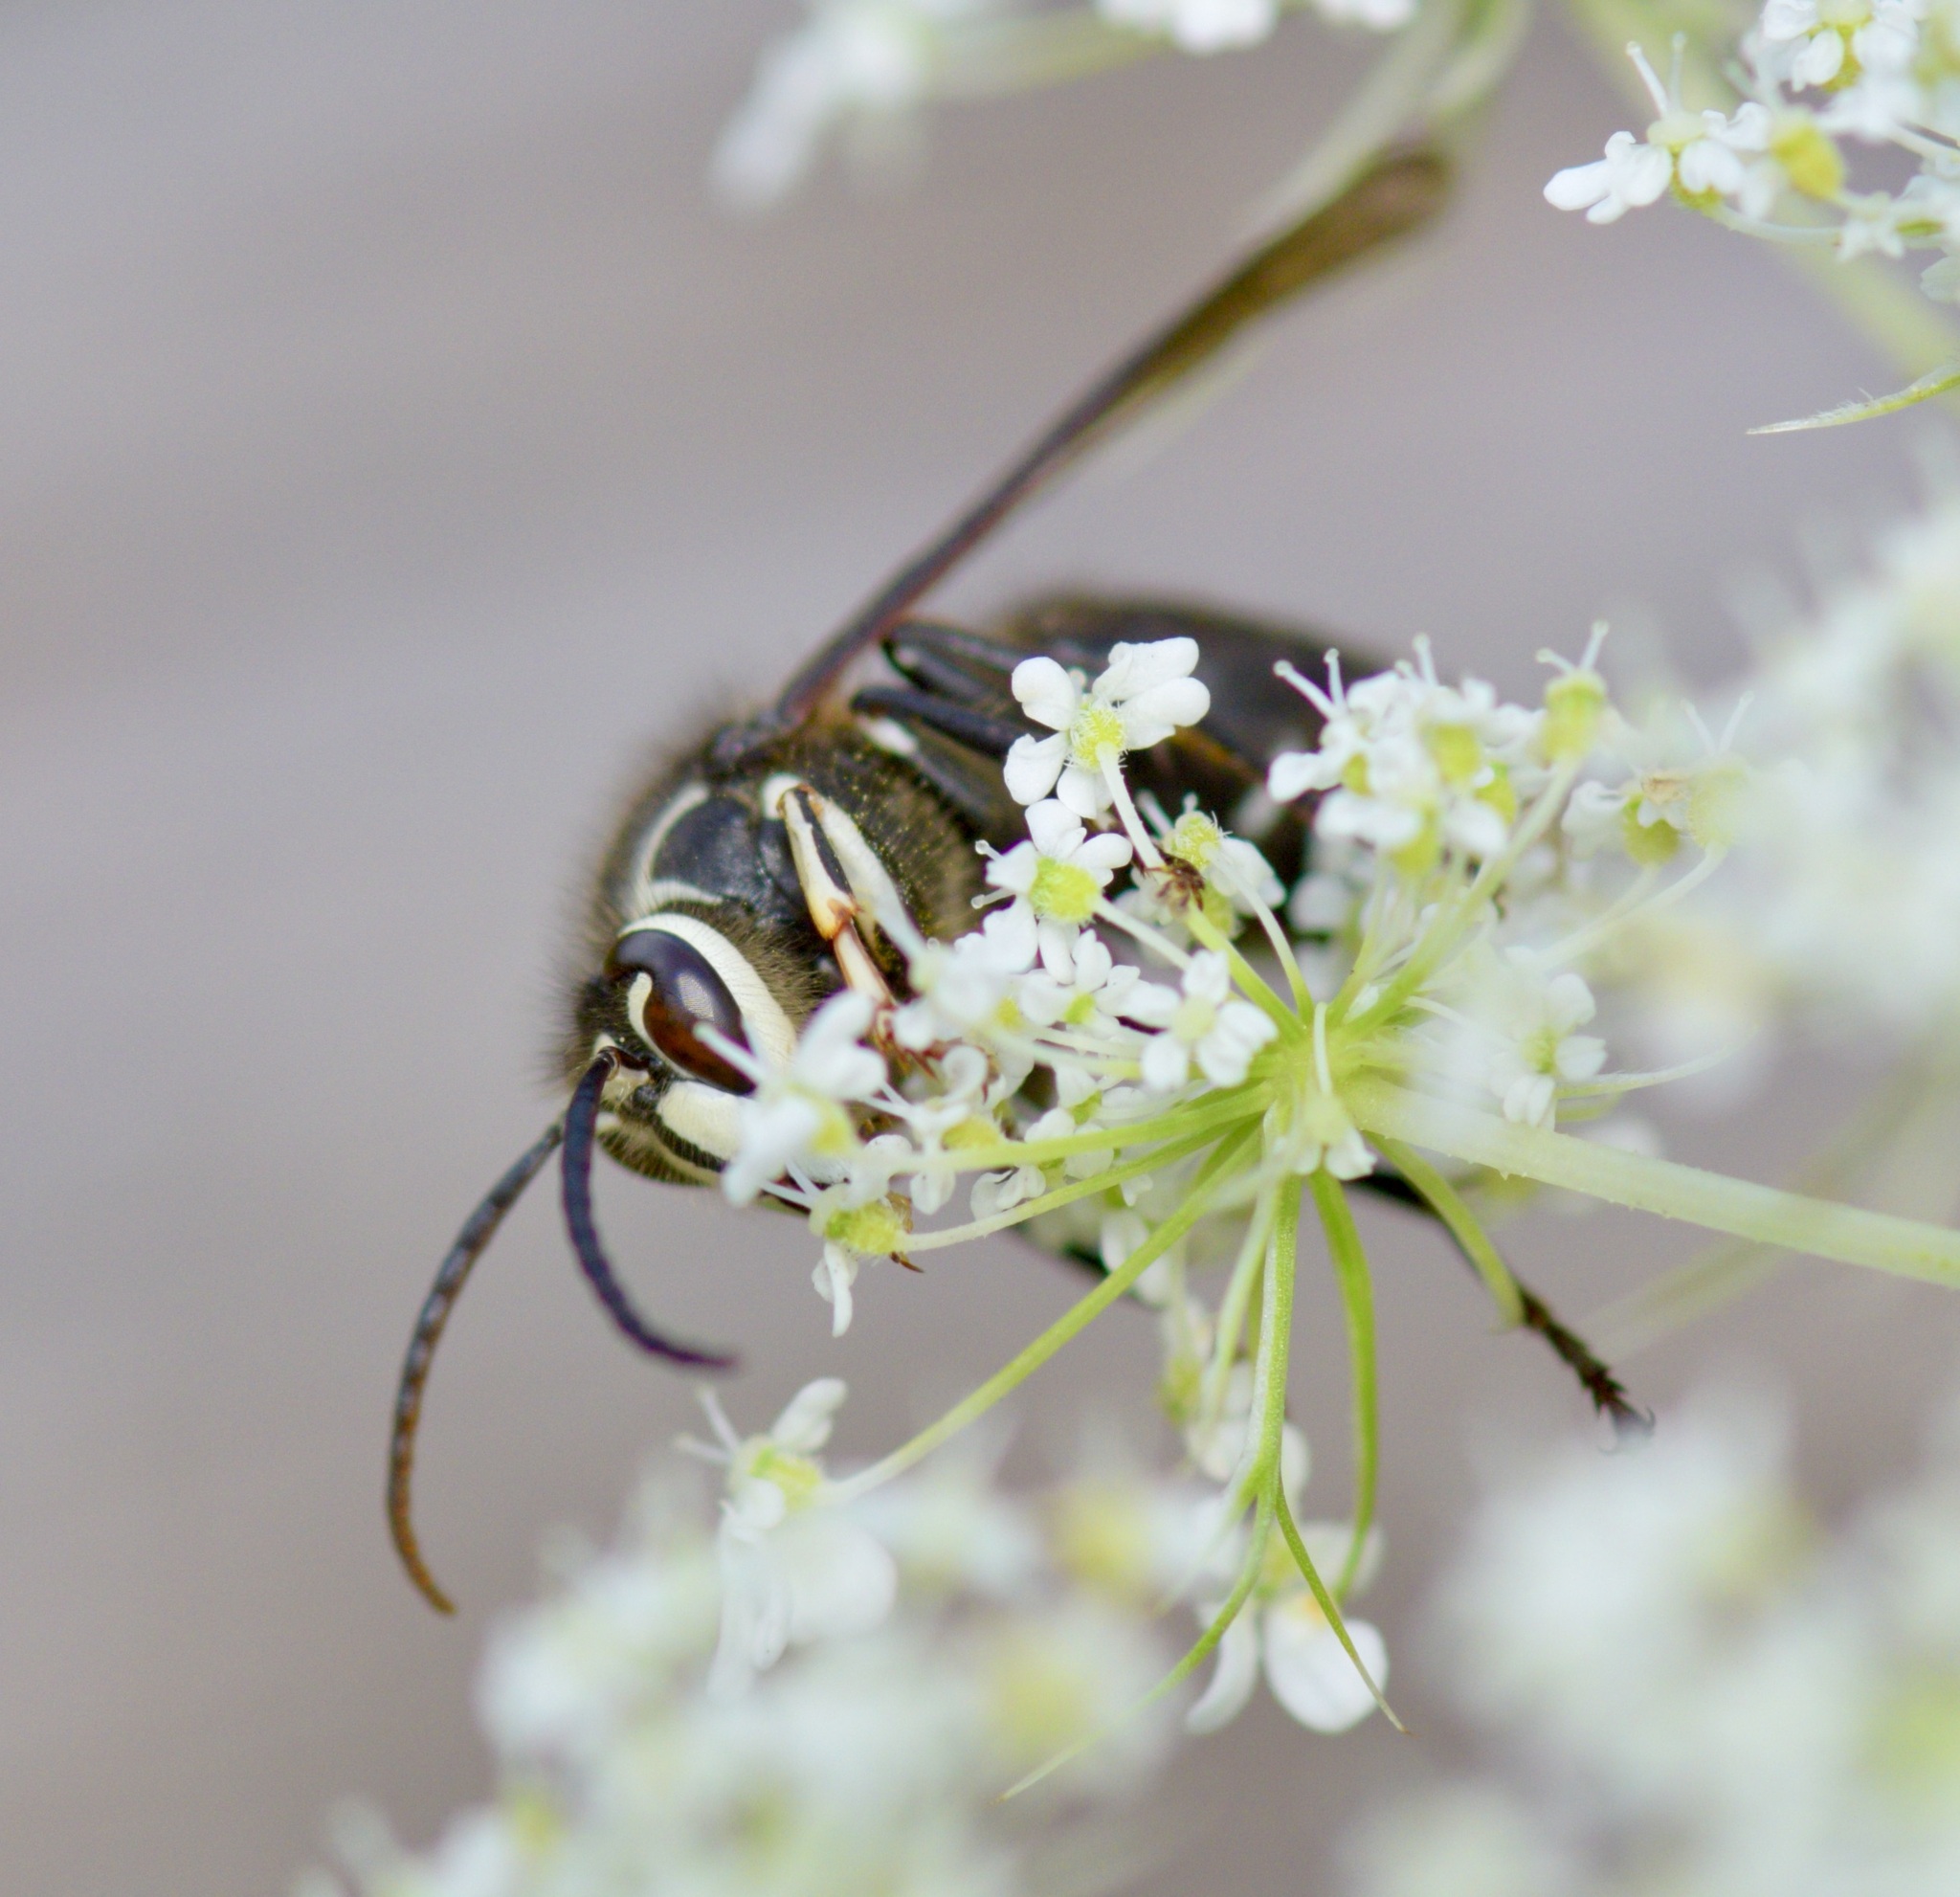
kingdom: Animalia
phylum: Arthropoda
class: Insecta
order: Hymenoptera
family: Vespidae
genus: Dolichovespula
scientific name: Dolichovespula maculata
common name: Bald-faced hornet
